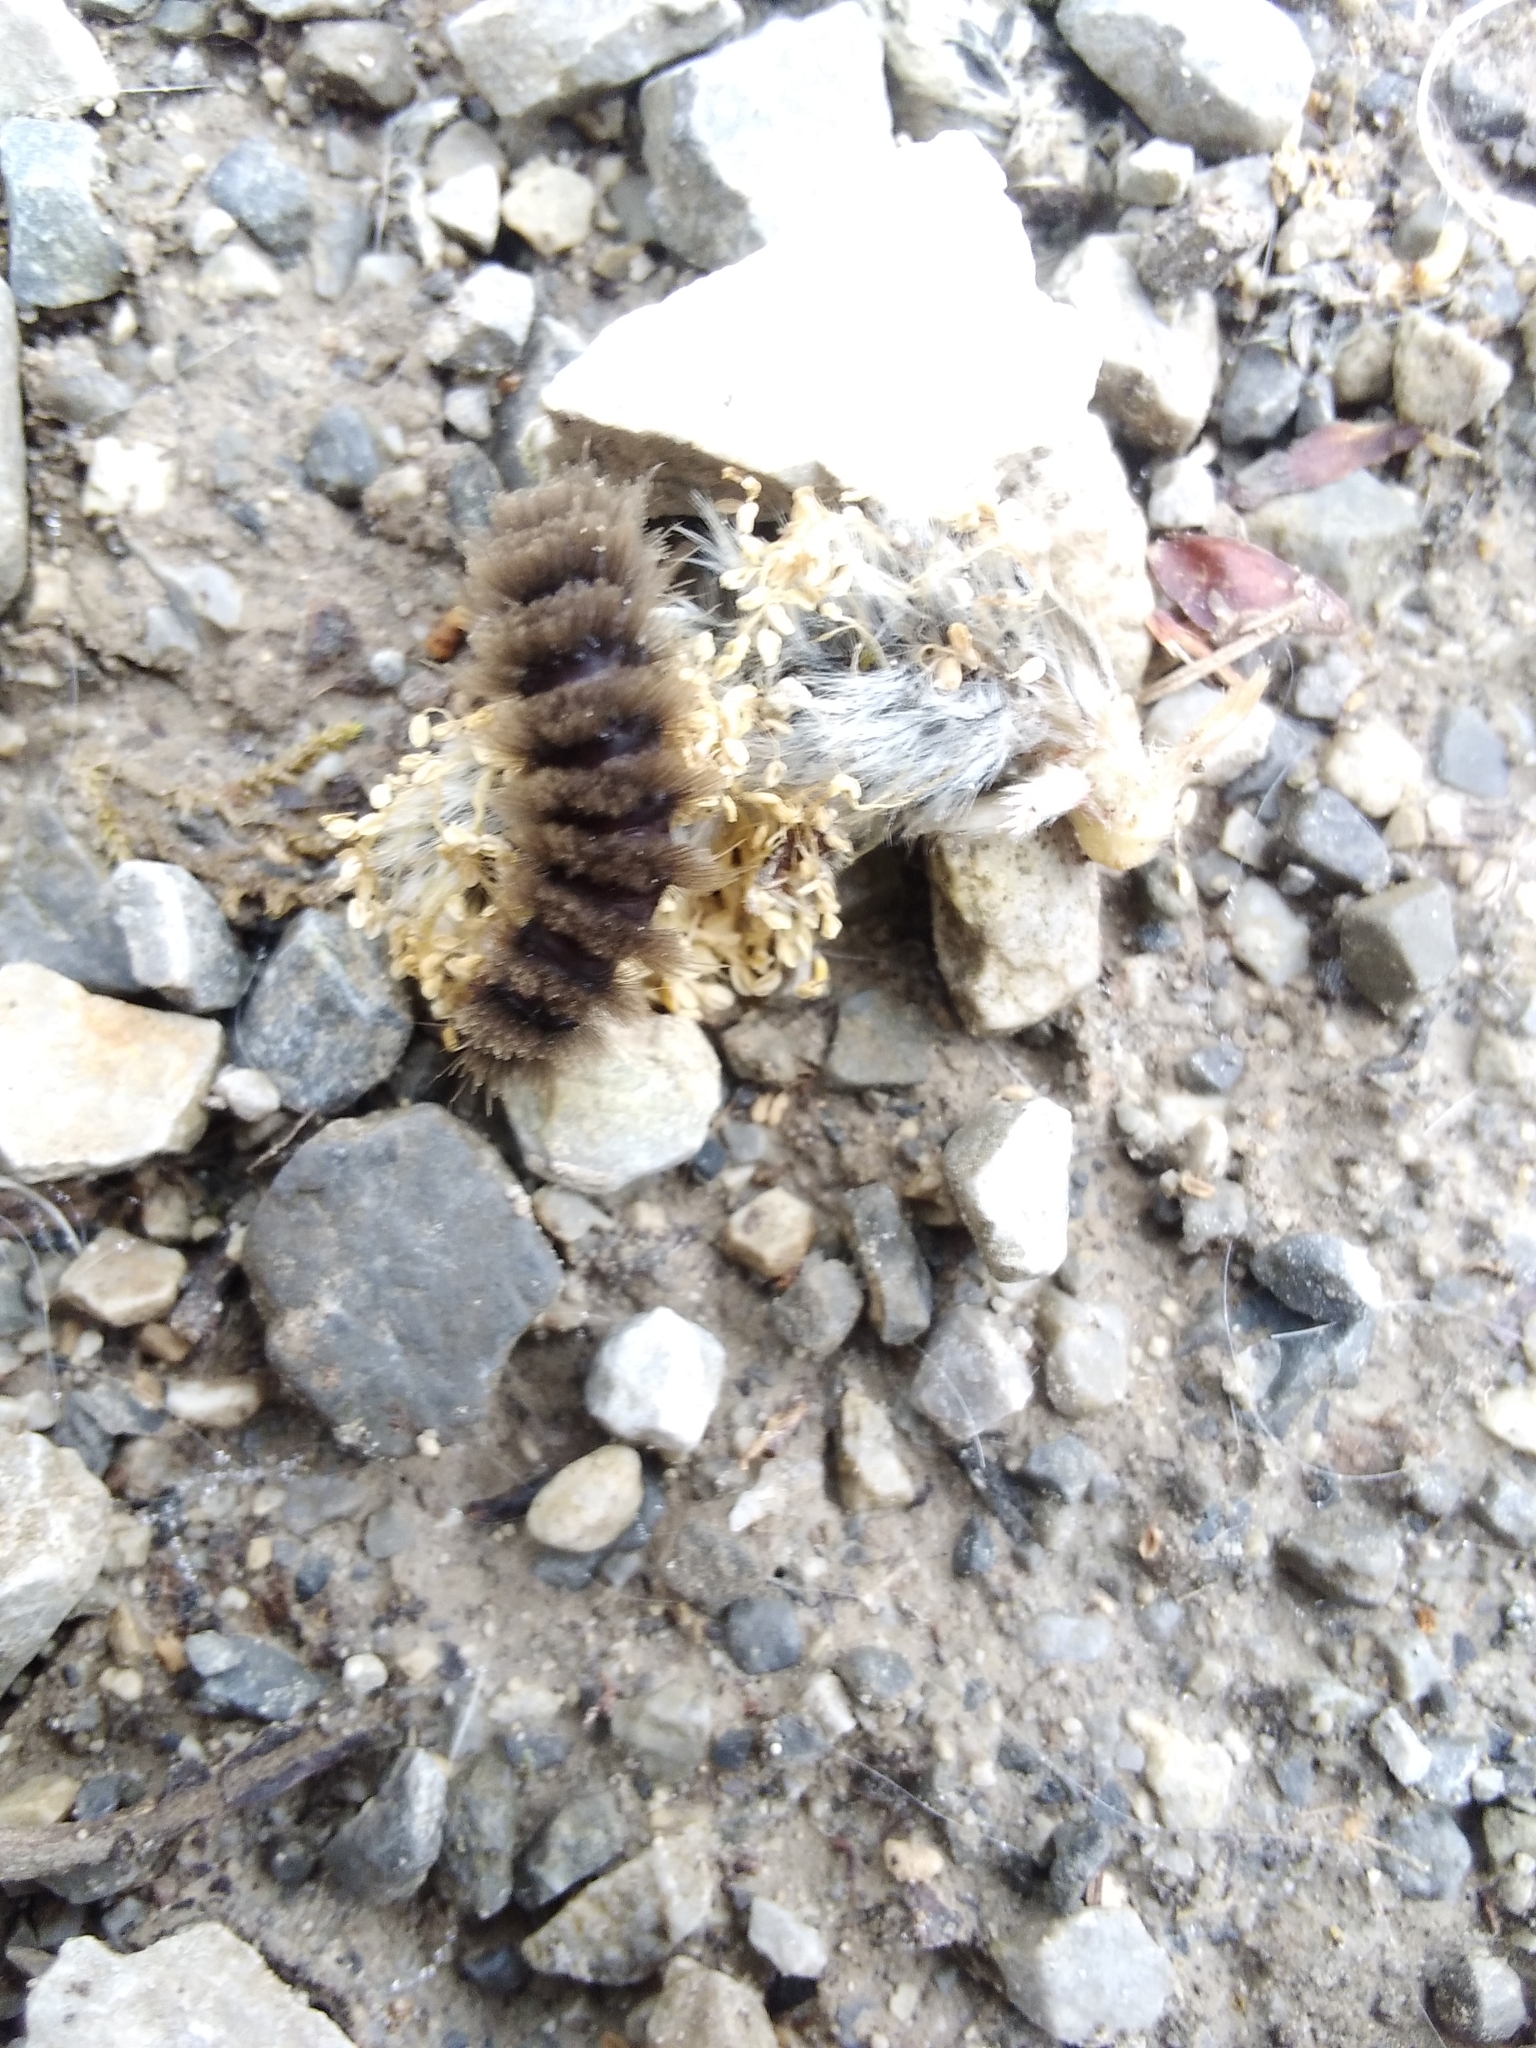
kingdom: Animalia
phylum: Arthropoda
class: Insecta
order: Lepidoptera
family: Erebidae
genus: Amata
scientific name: Amata phegea
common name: Nine-spotted
